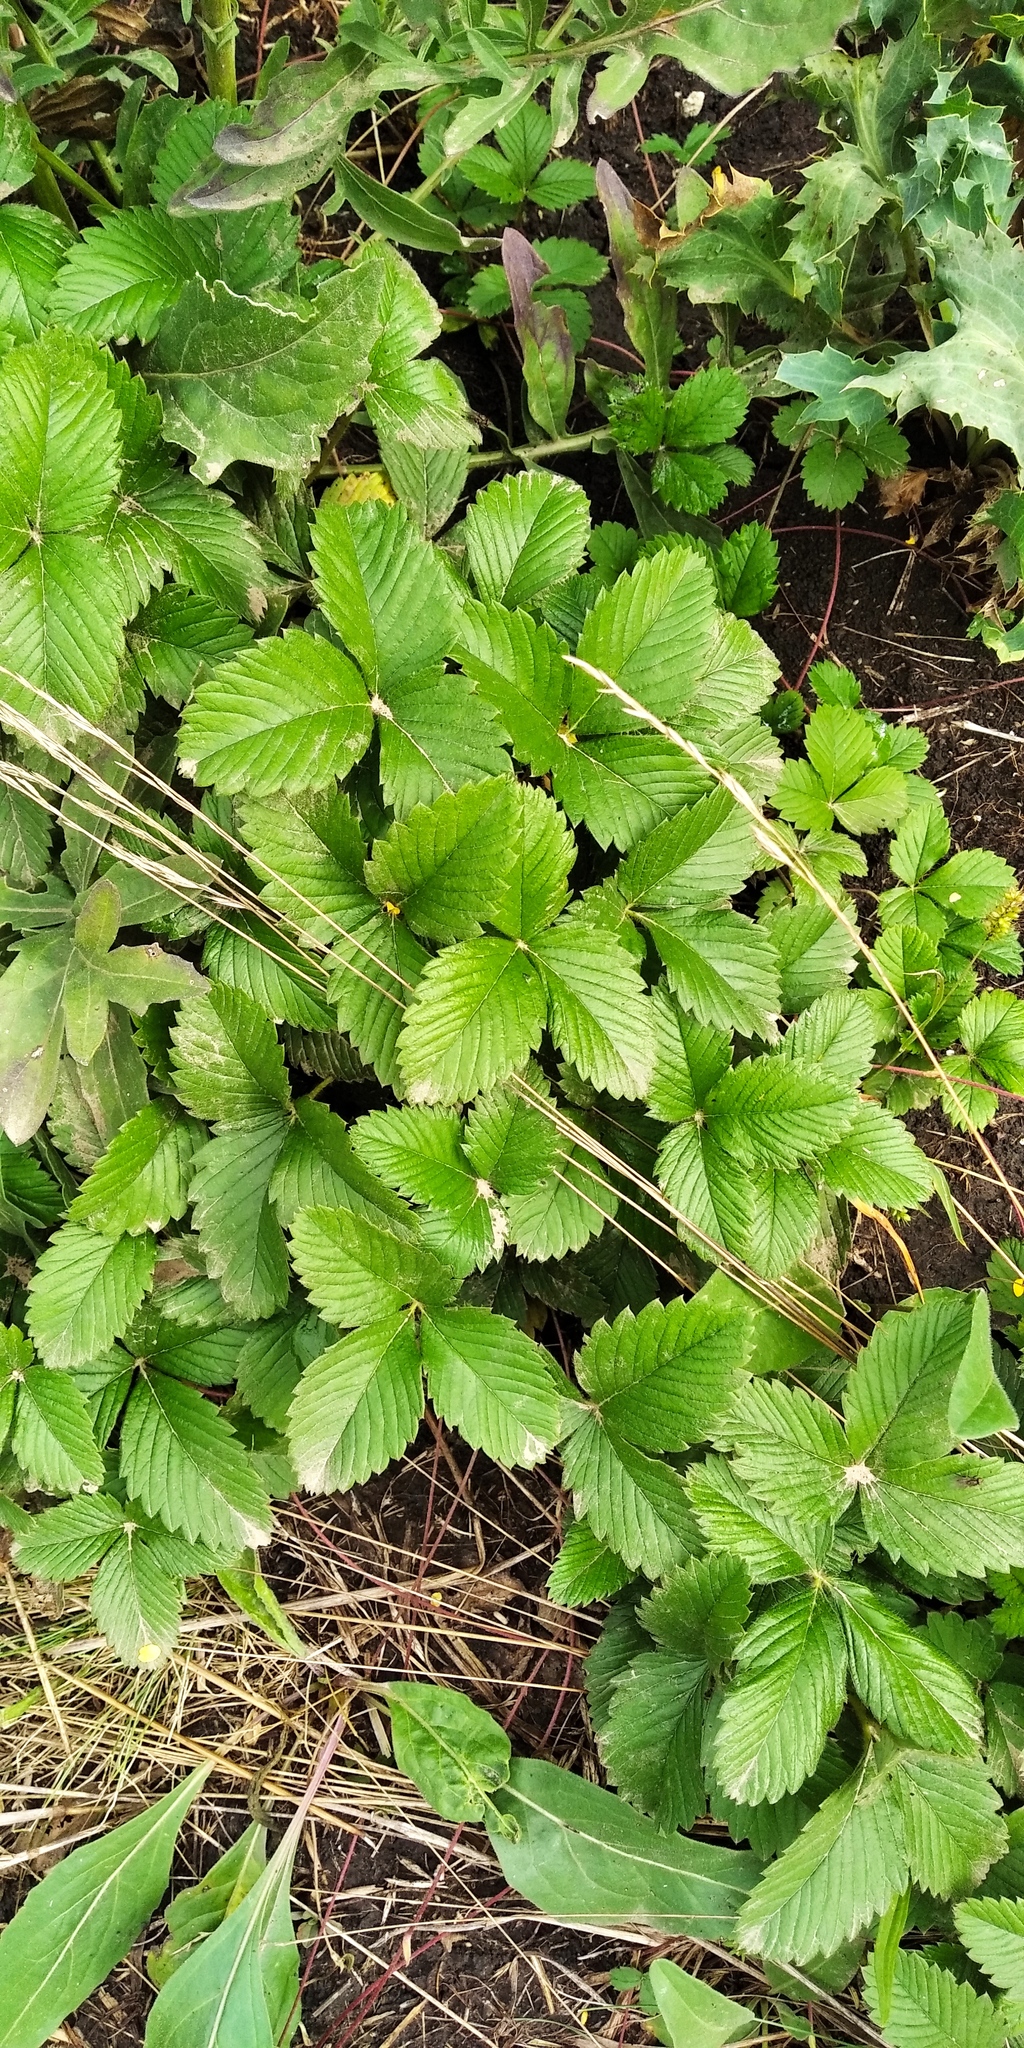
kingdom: Plantae
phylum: Tracheophyta
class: Magnoliopsida
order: Rosales
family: Rosaceae
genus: Fragaria
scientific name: Fragaria viridis
